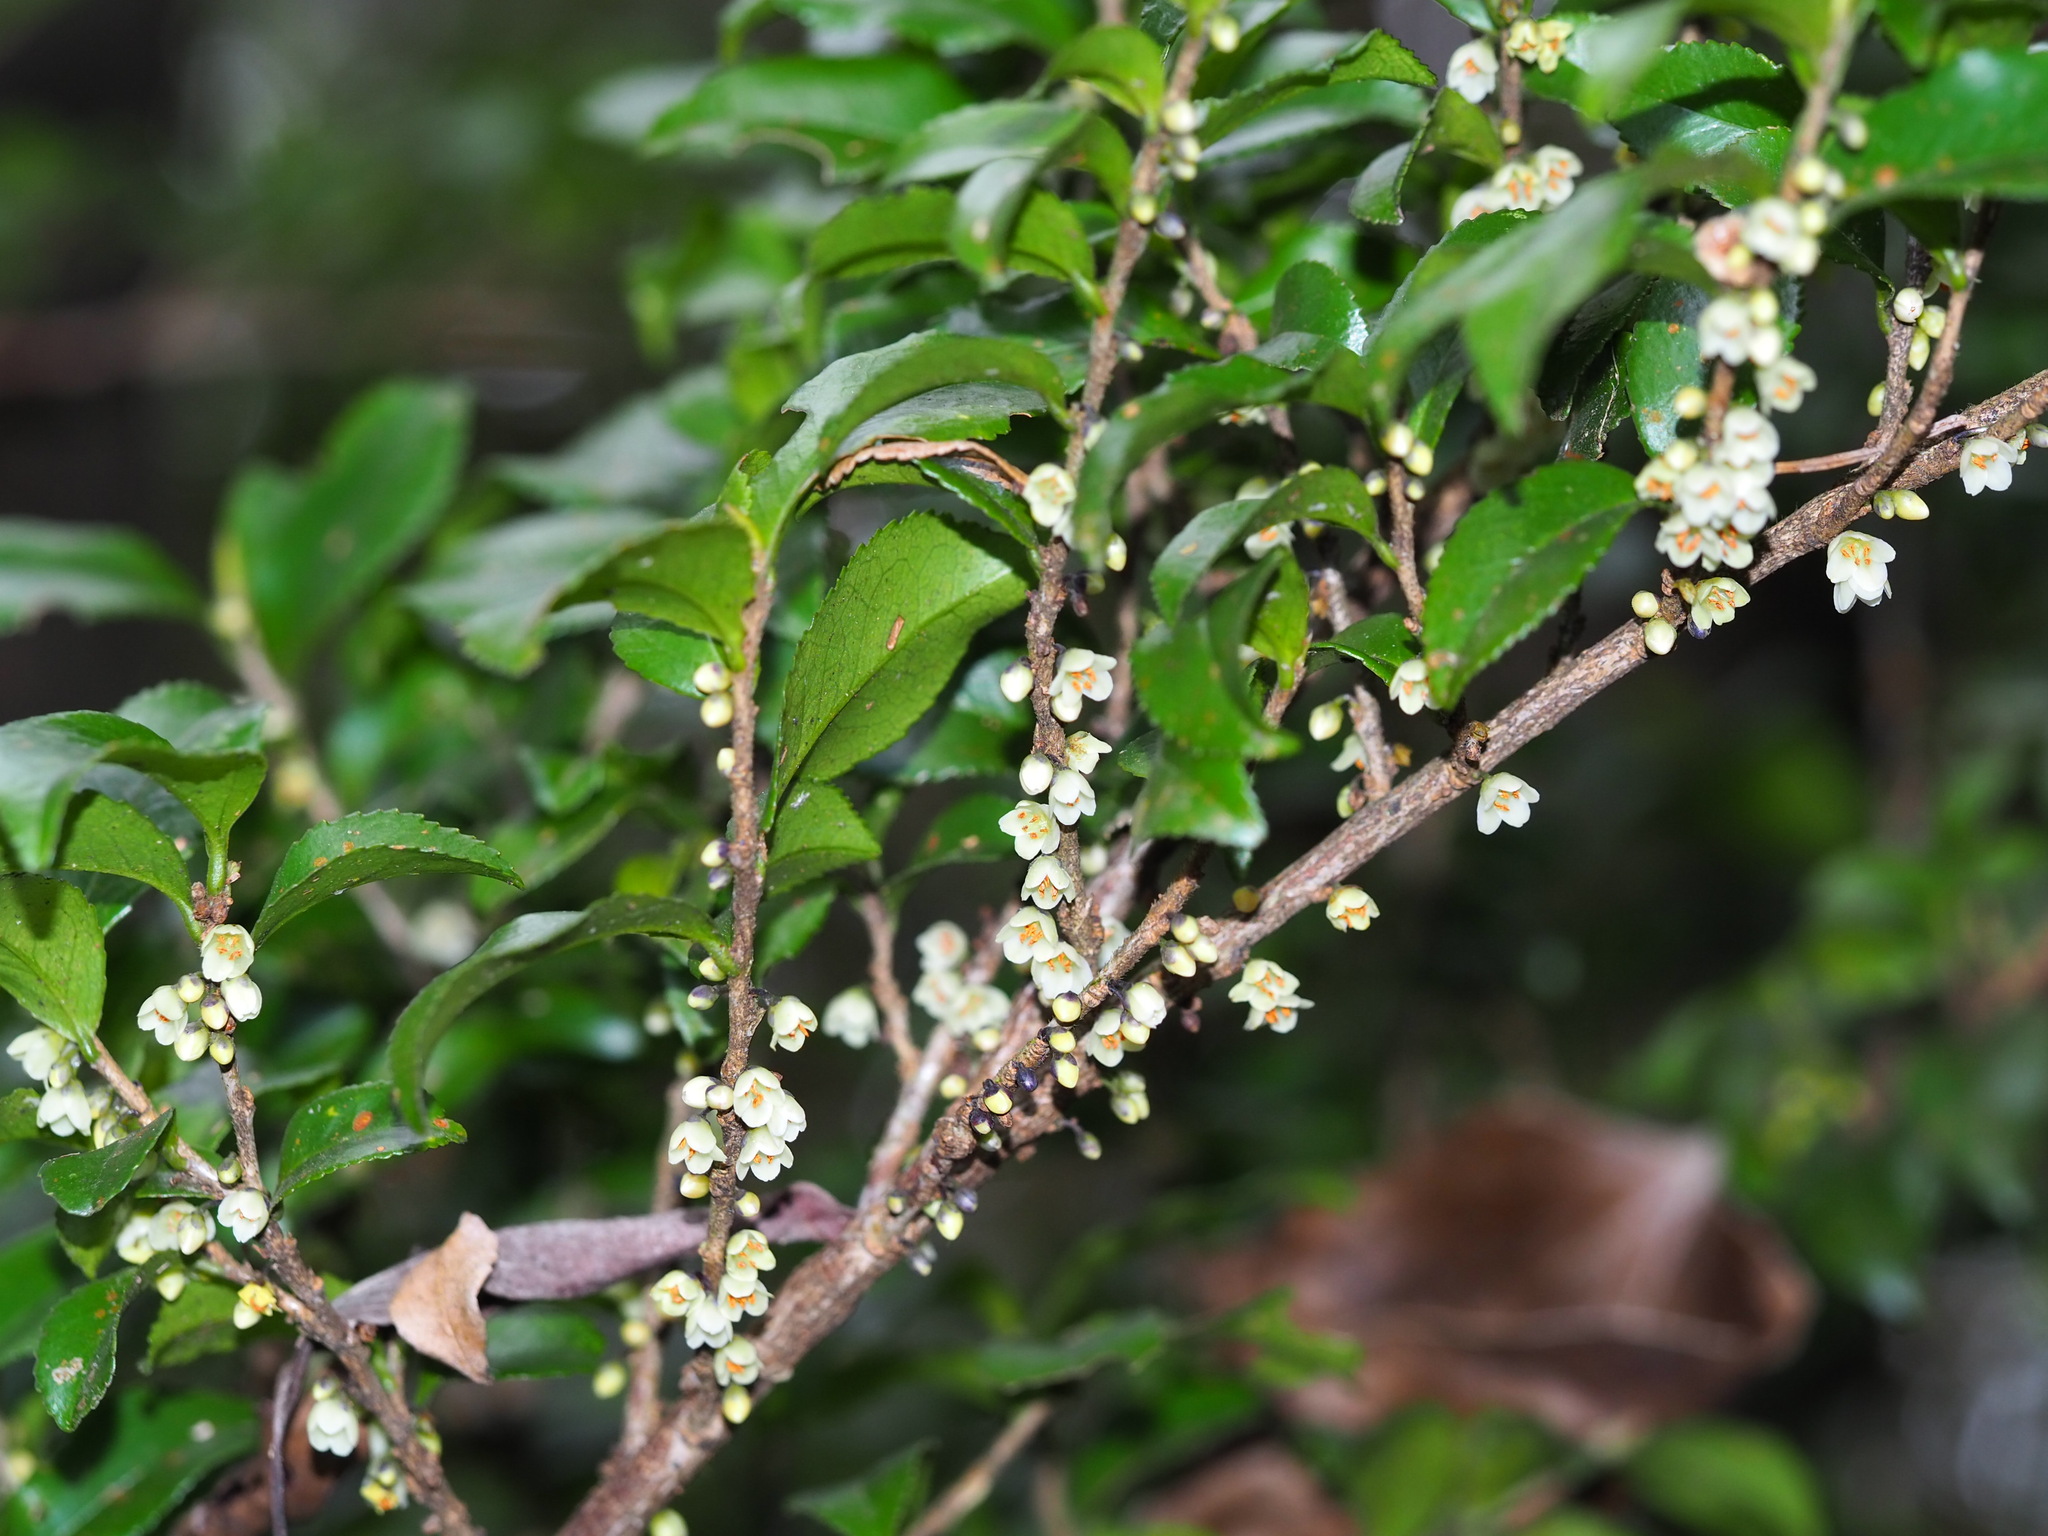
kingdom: Plantae
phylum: Tracheophyta
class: Magnoliopsida
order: Ericales
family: Pentaphylacaceae
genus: Eurya
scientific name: Eurya crenatifolia
